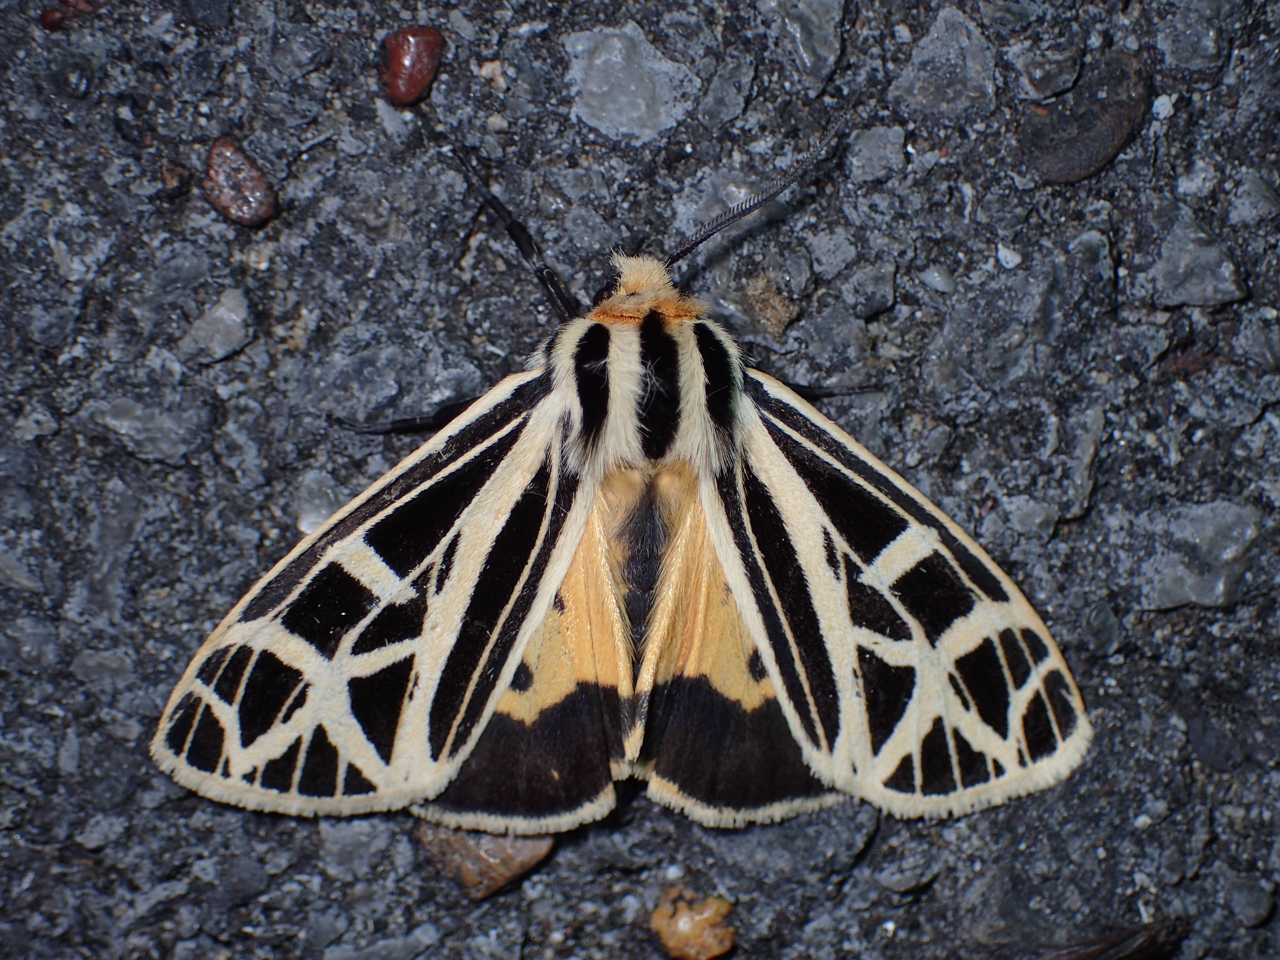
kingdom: Animalia
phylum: Arthropoda
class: Insecta
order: Lepidoptera
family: Erebidae
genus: Apantesis
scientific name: Apantesis
